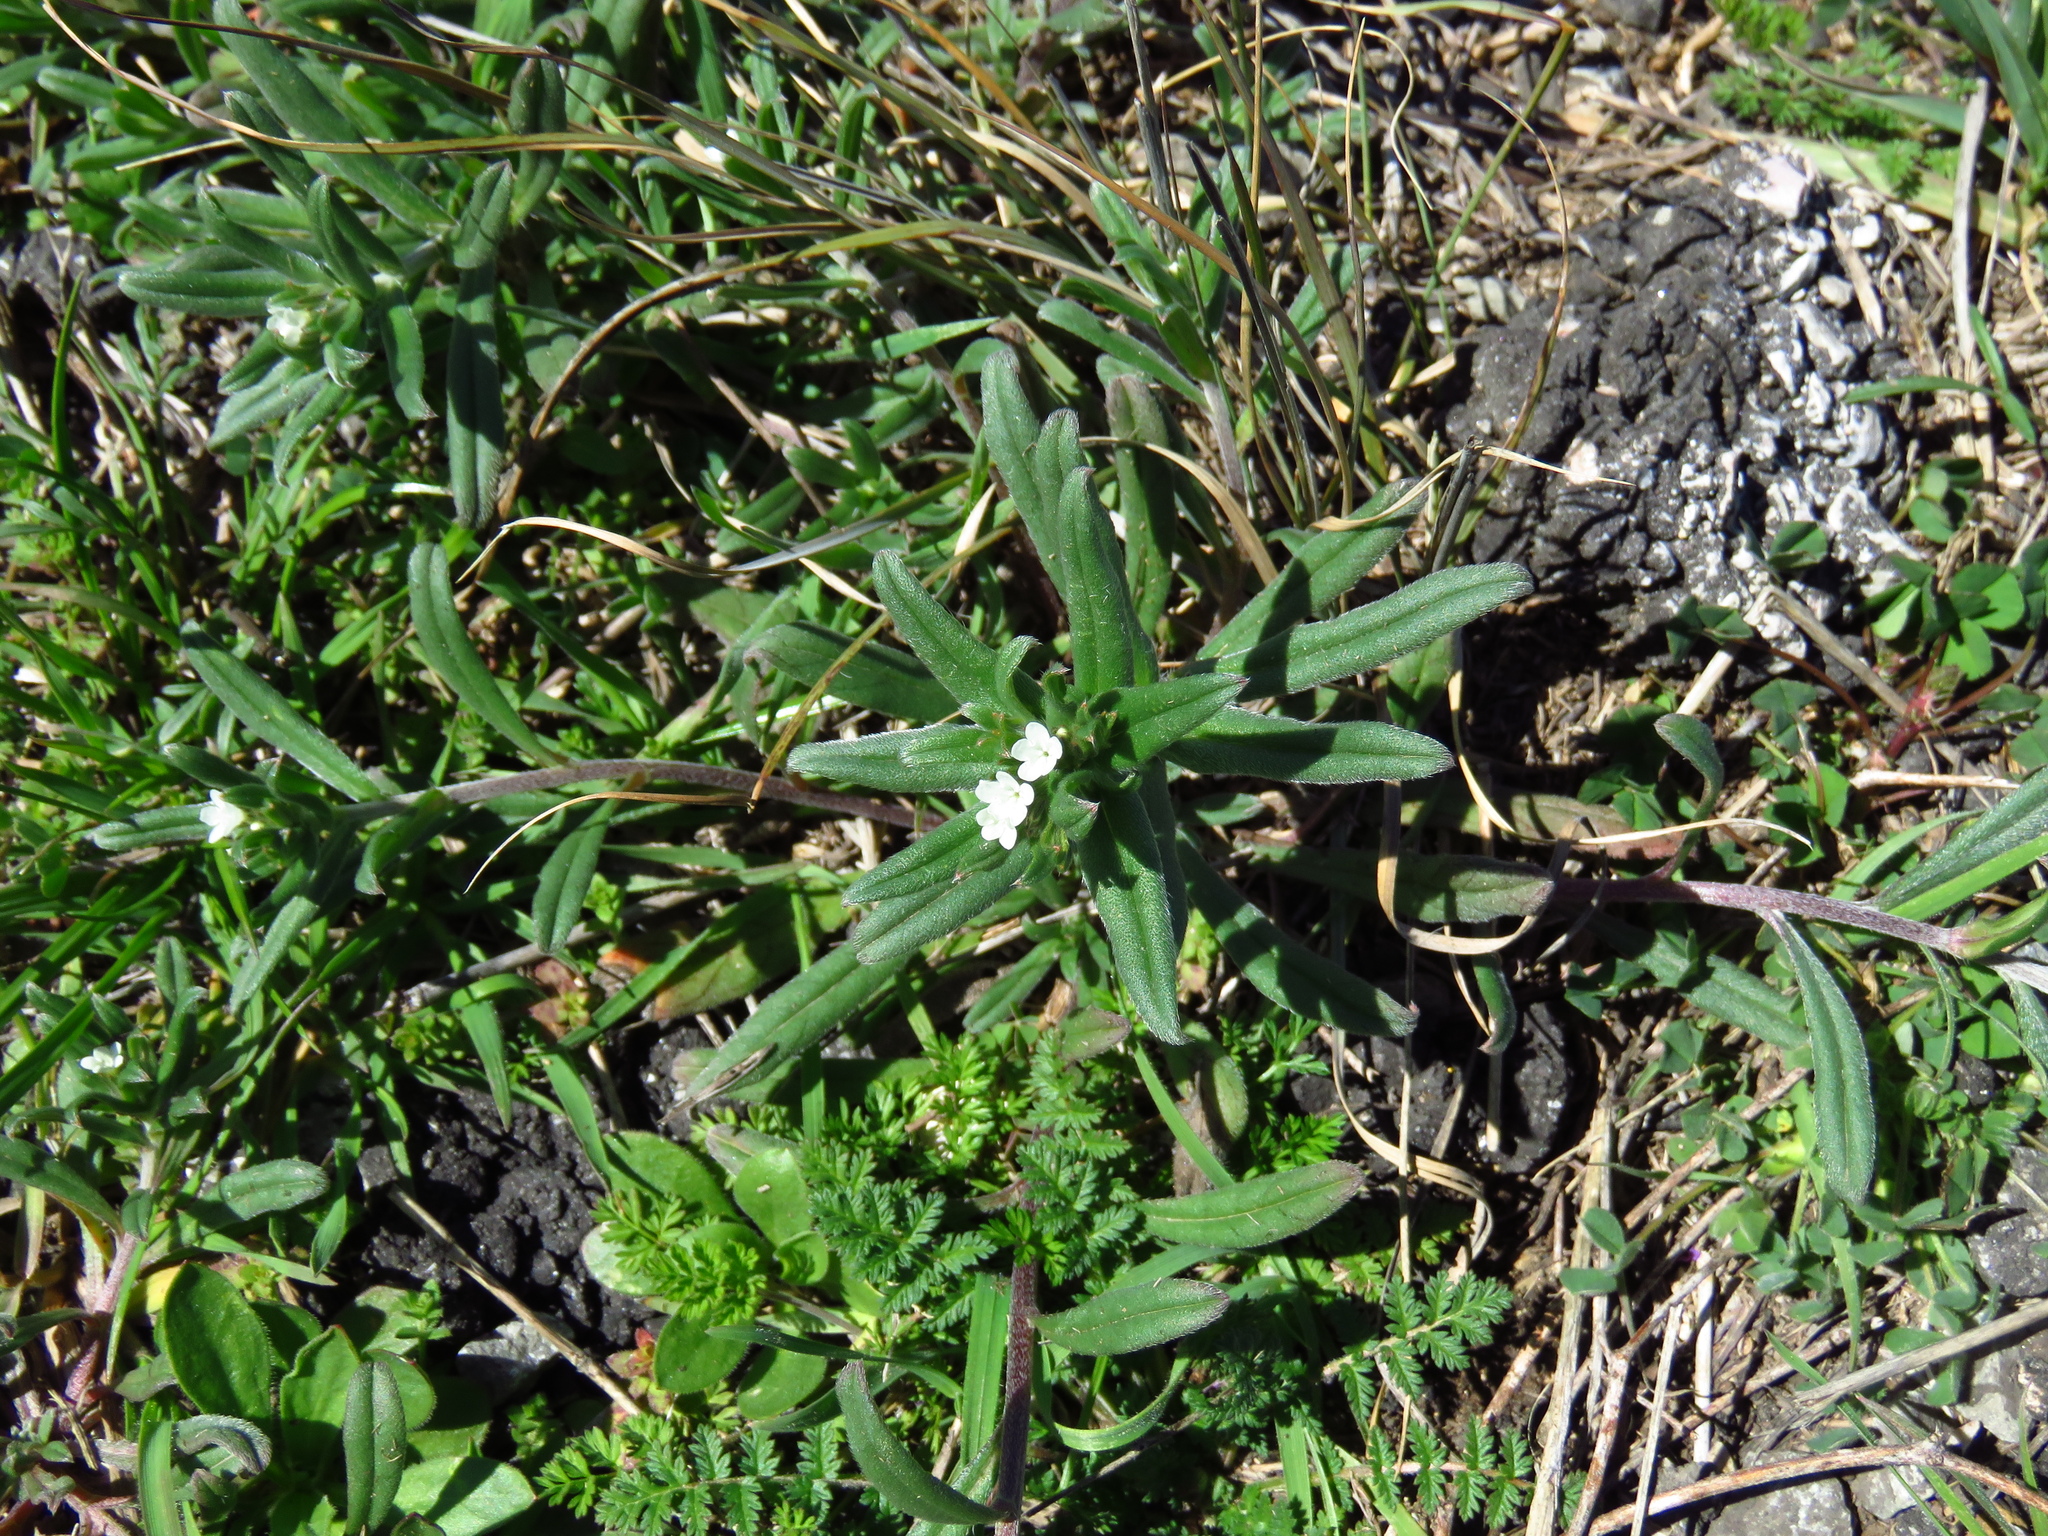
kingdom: Plantae
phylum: Tracheophyta
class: Magnoliopsida
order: Boraginales
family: Boraginaceae
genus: Buglossoides
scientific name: Buglossoides arvensis
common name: Corn gromwell
